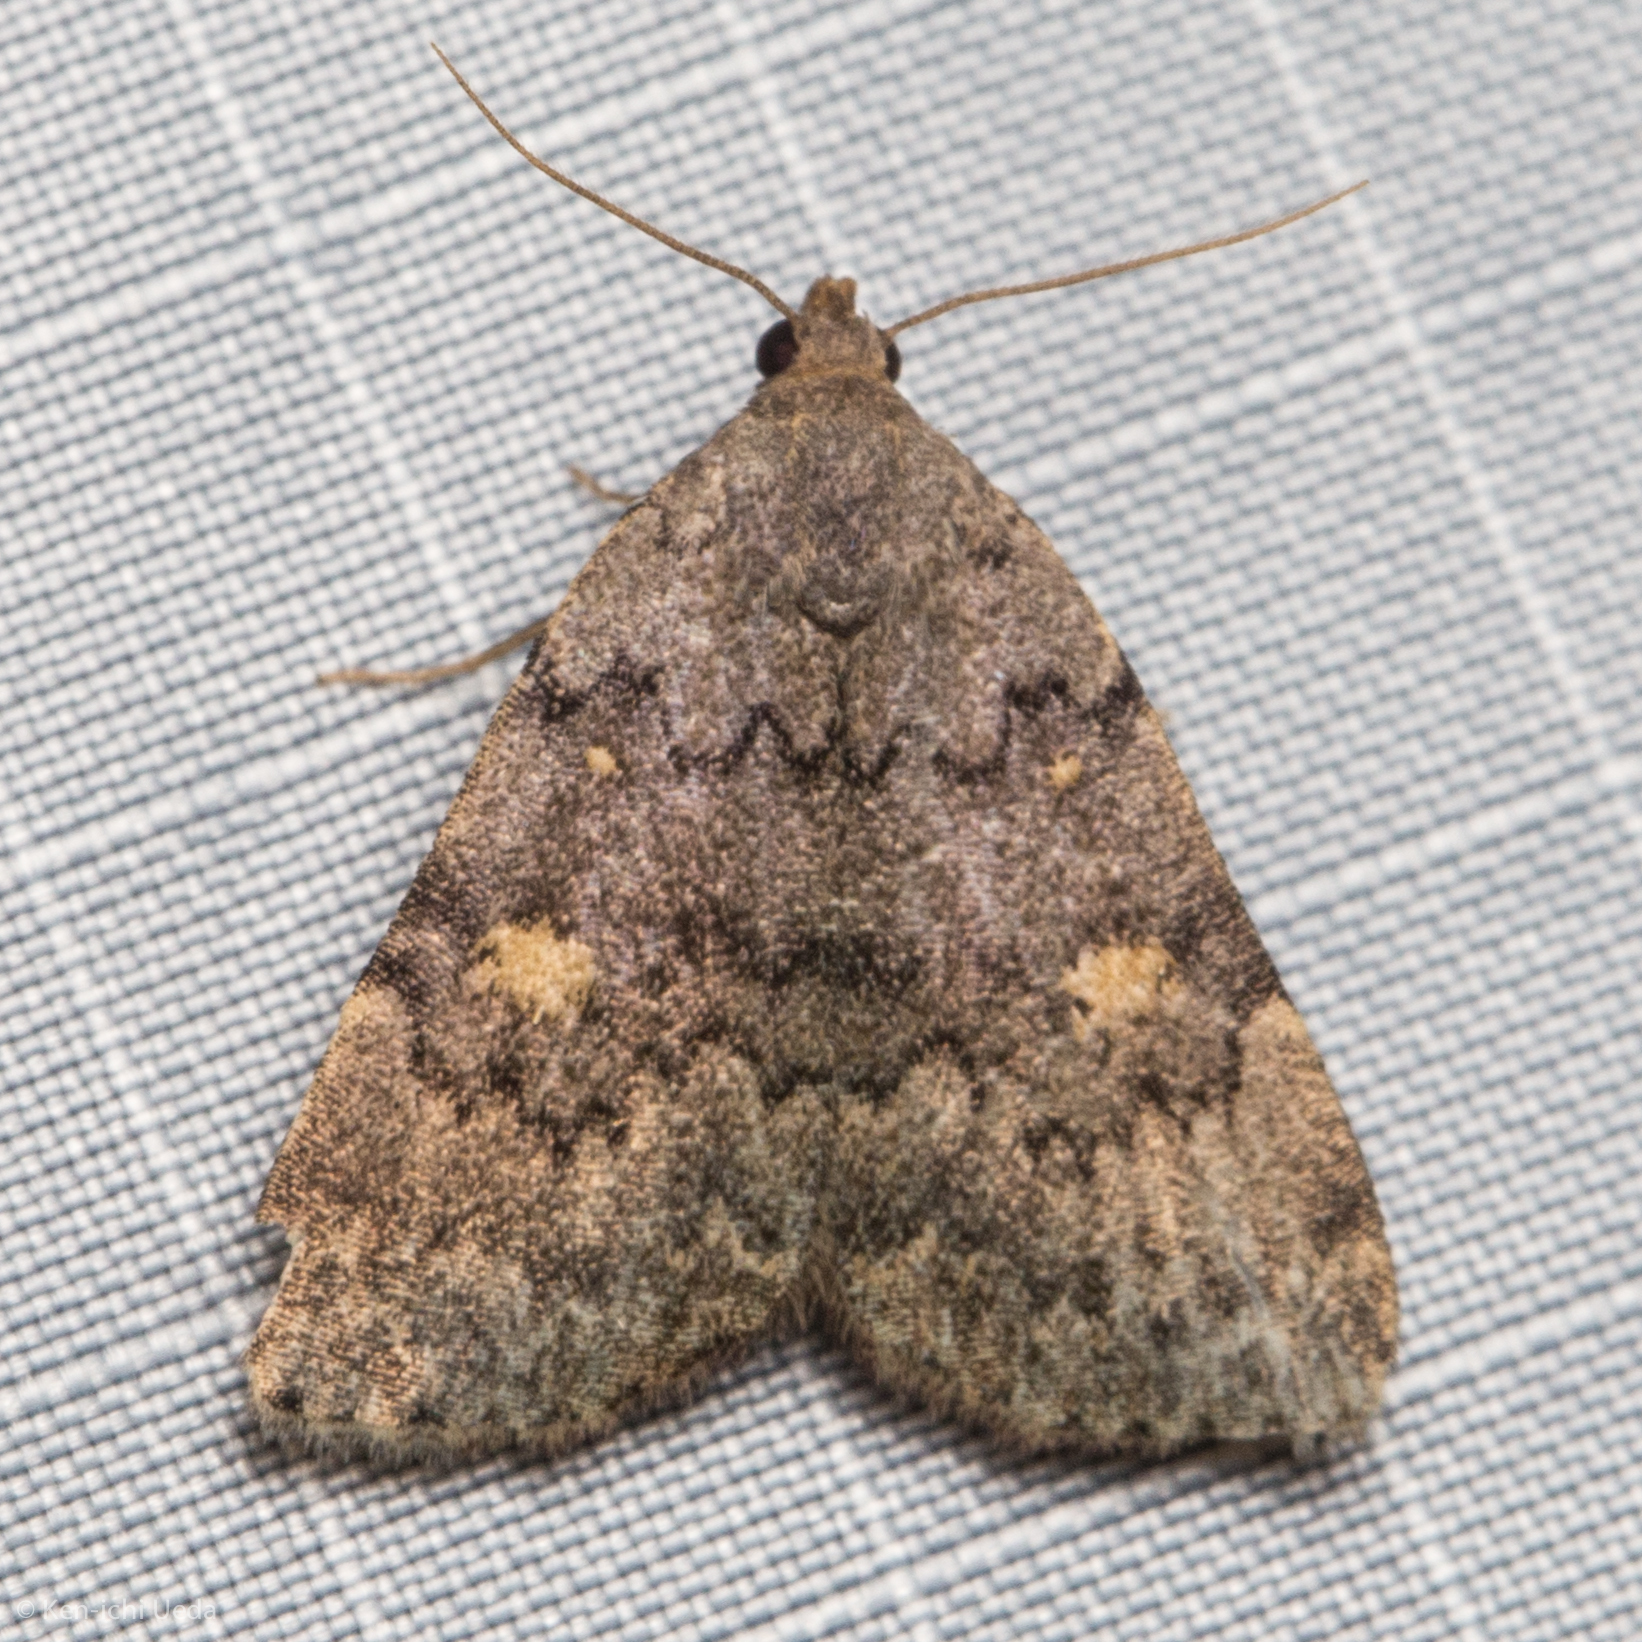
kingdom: Animalia
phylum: Arthropoda
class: Insecta
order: Lepidoptera
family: Erebidae
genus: Idia
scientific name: Idia aemula
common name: Common idia moth
